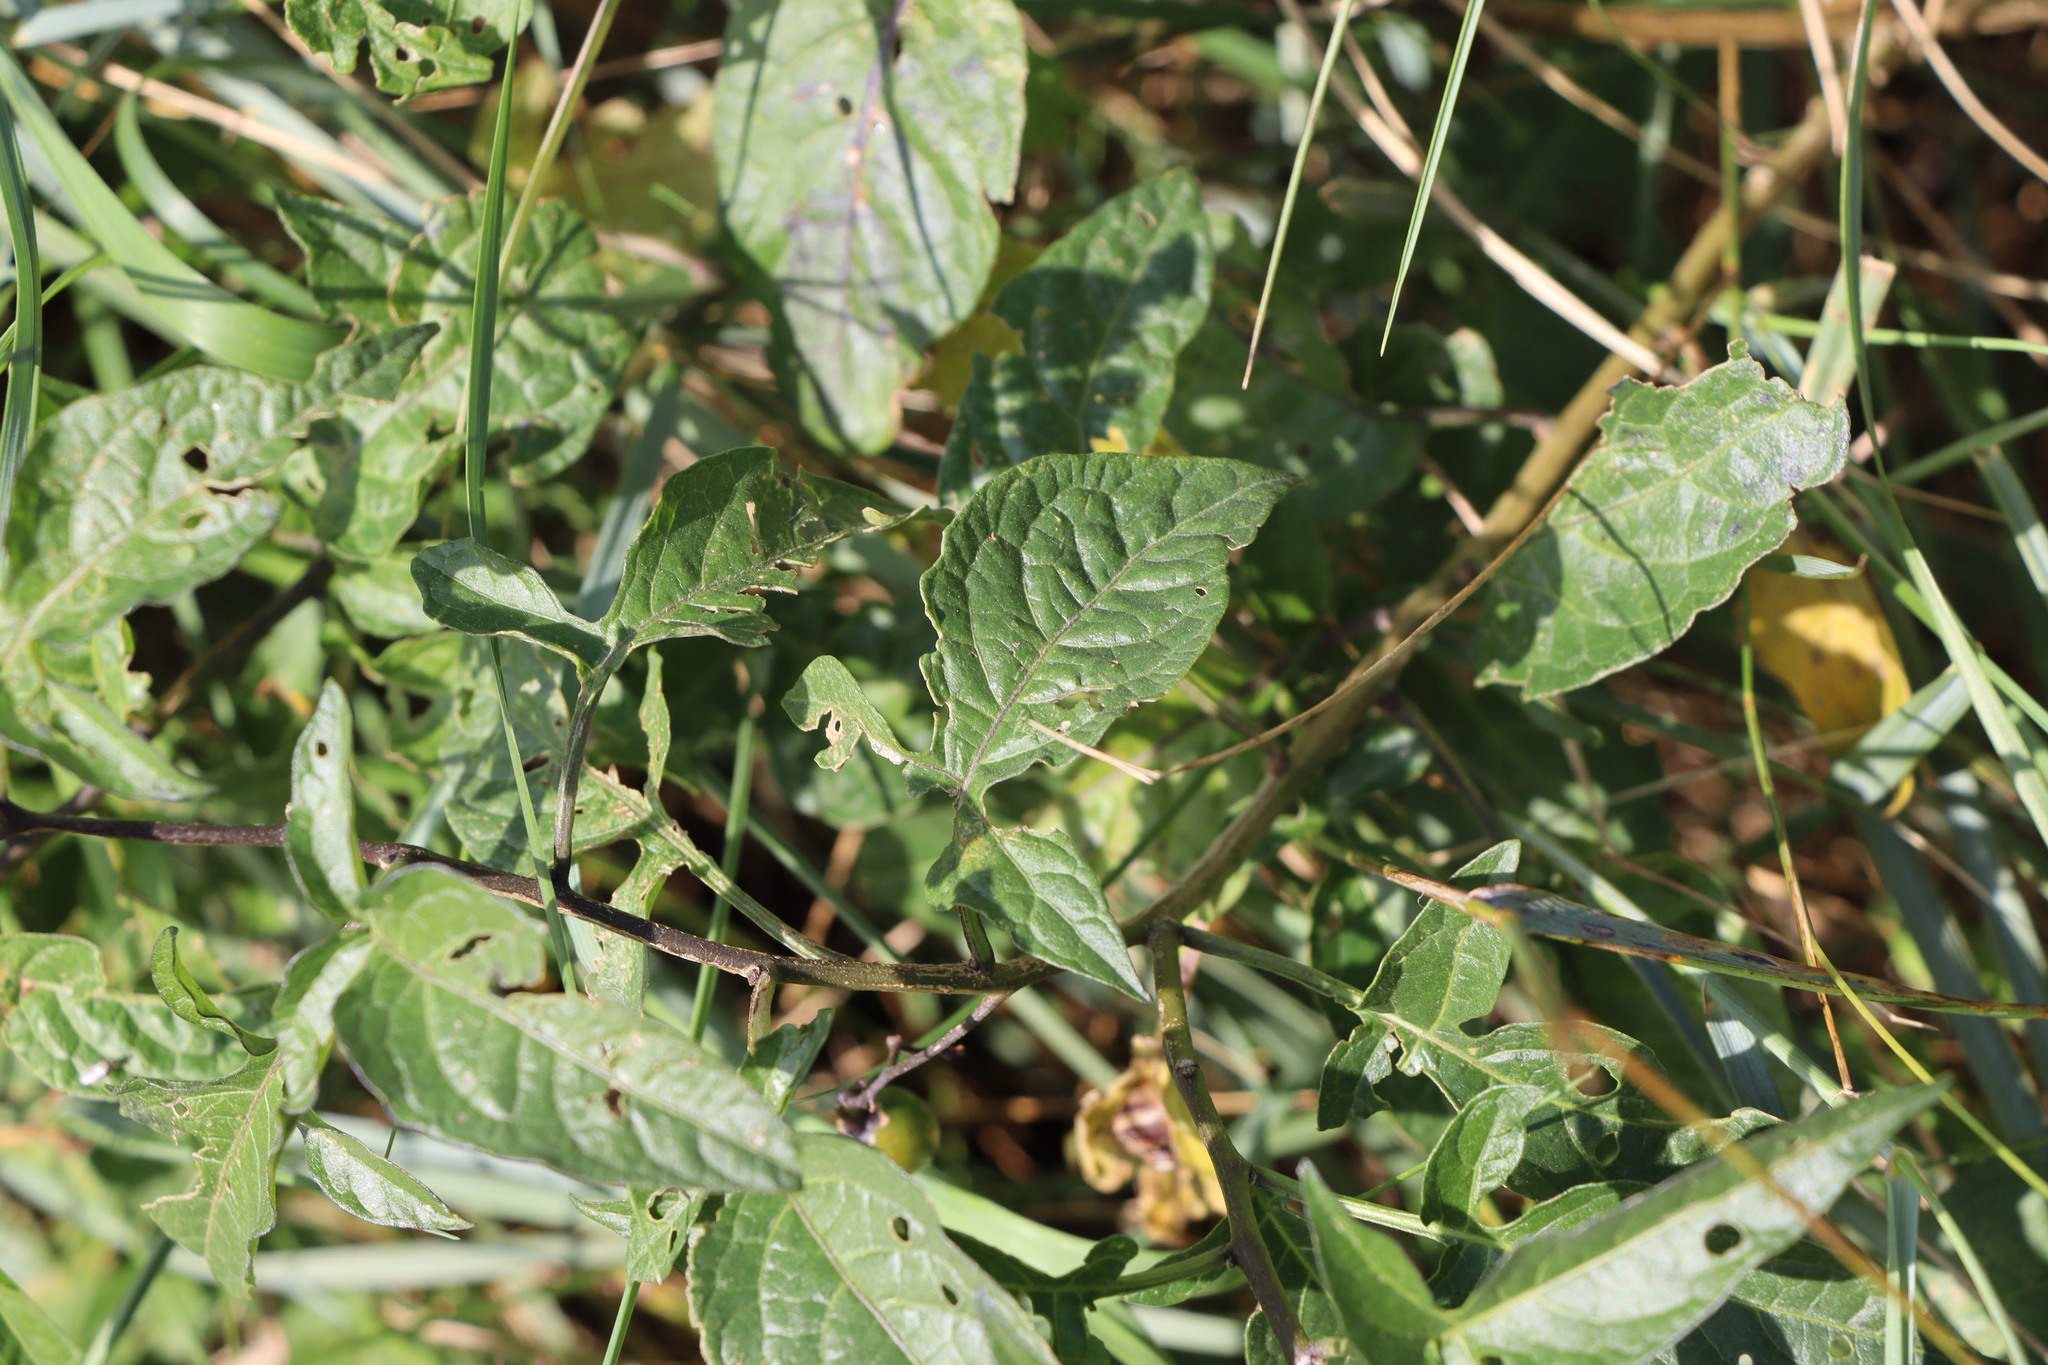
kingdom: Plantae
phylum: Tracheophyta
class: Magnoliopsida
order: Solanales
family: Solanaceae
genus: Solanum
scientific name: Solanum dulcamara
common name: Climbing nightshade
